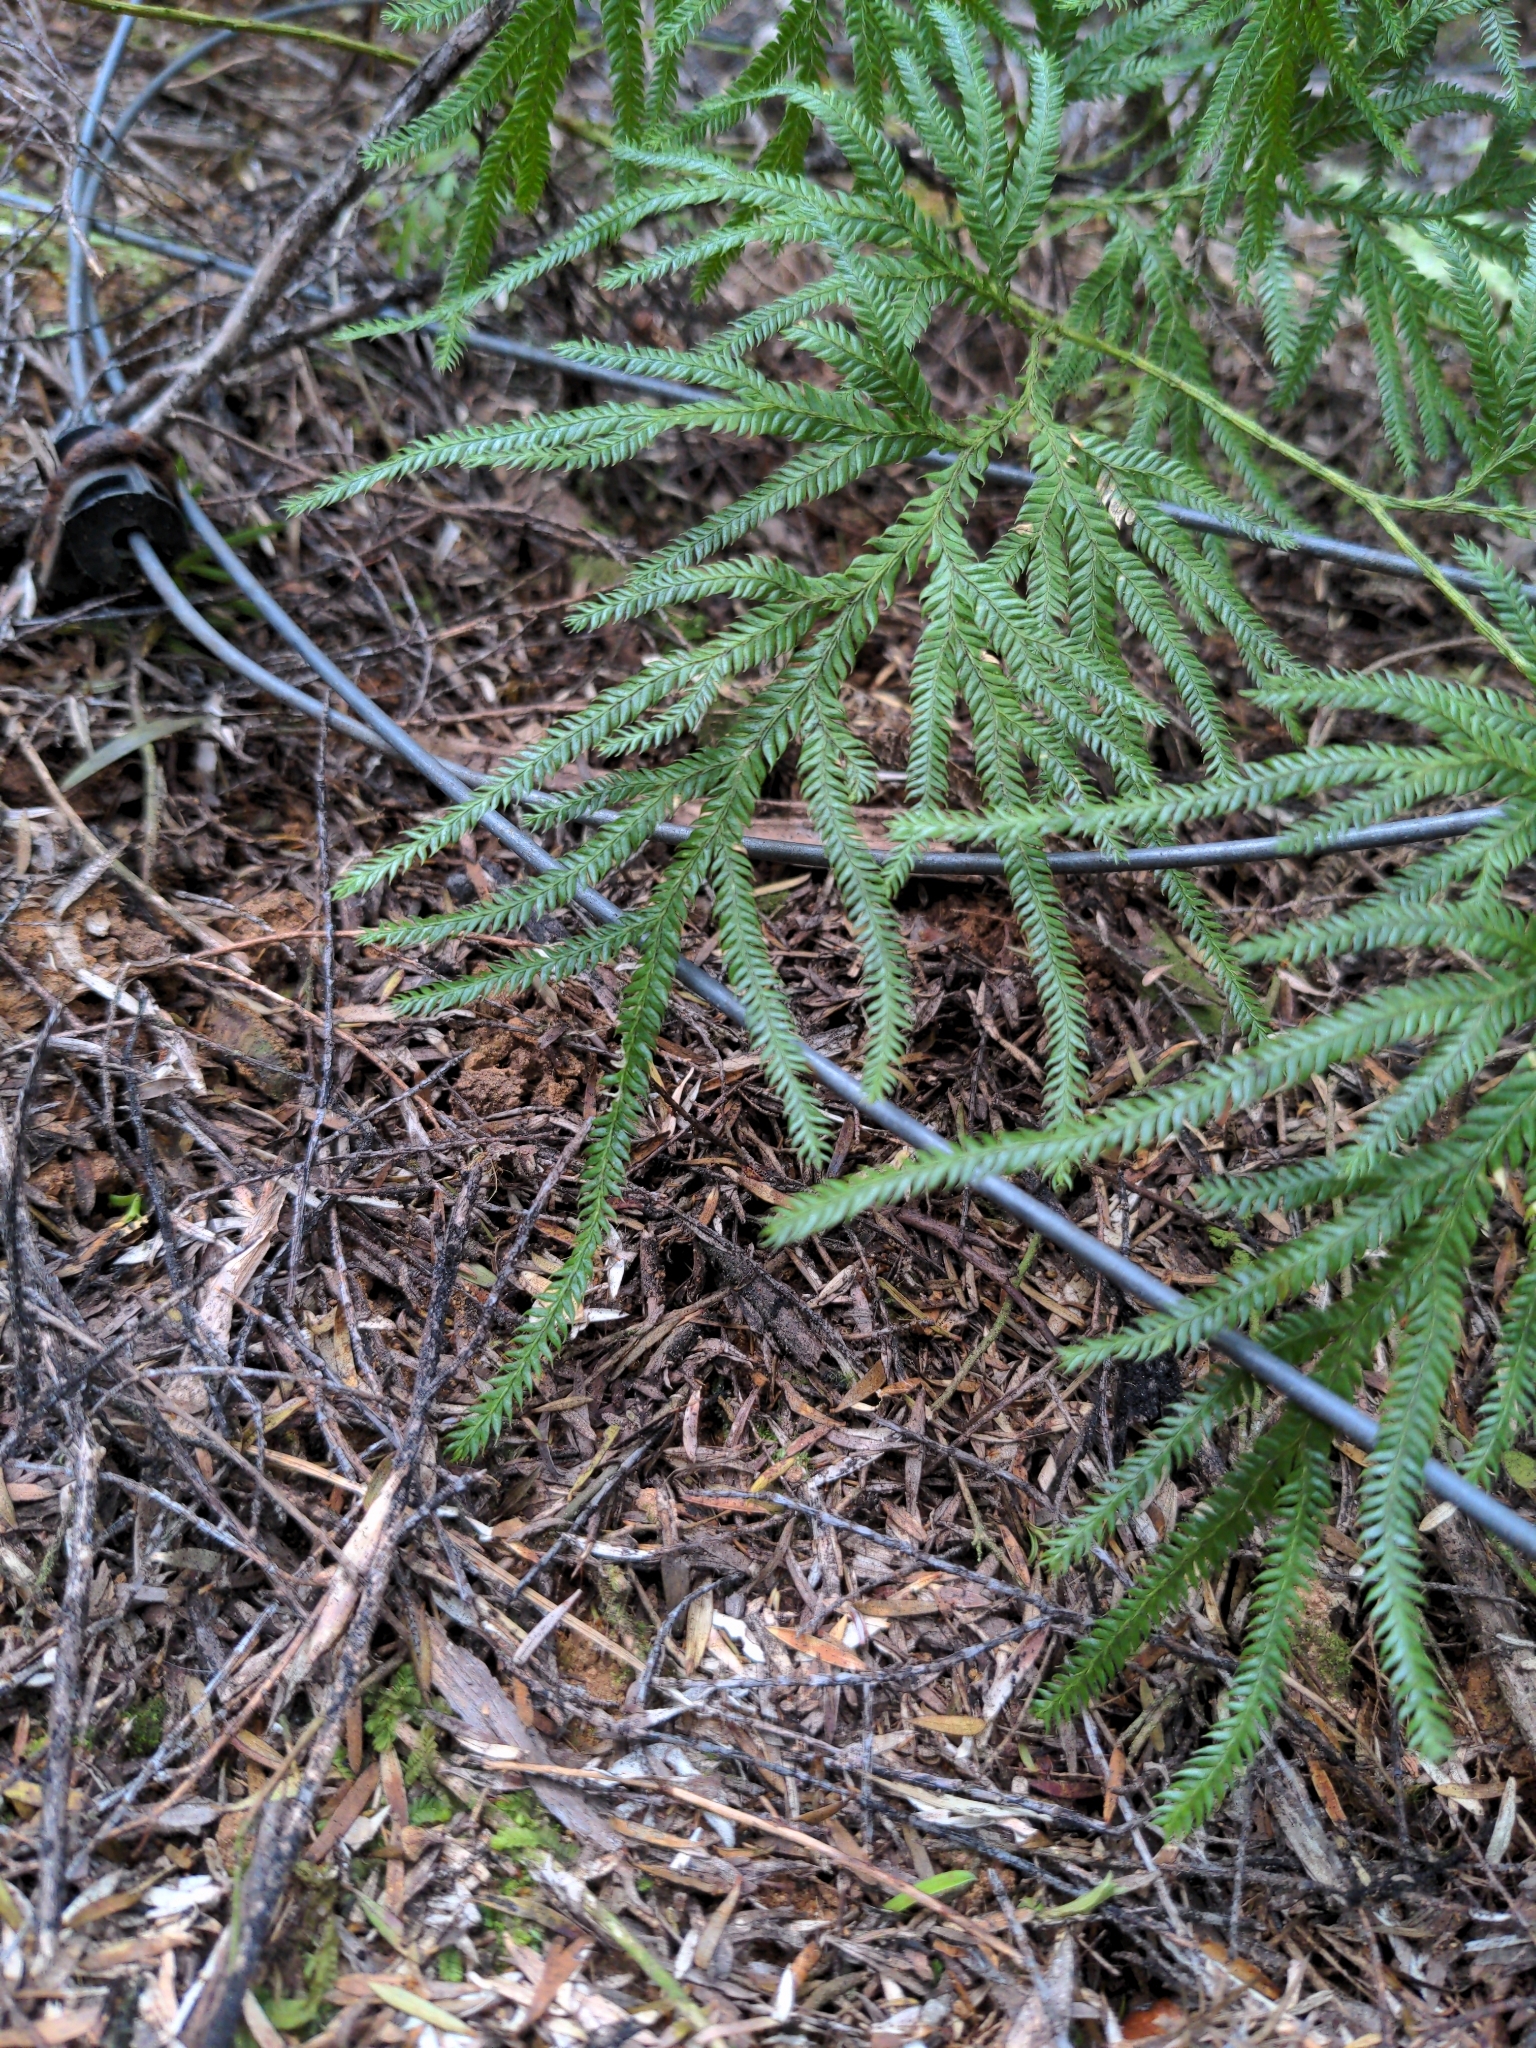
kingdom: Plantae
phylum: Tracheophyta
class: Lycopodiopsida
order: Lycopodiales
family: Lycopodiaceae
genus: Lycopodium
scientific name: Lycopodium volubile
